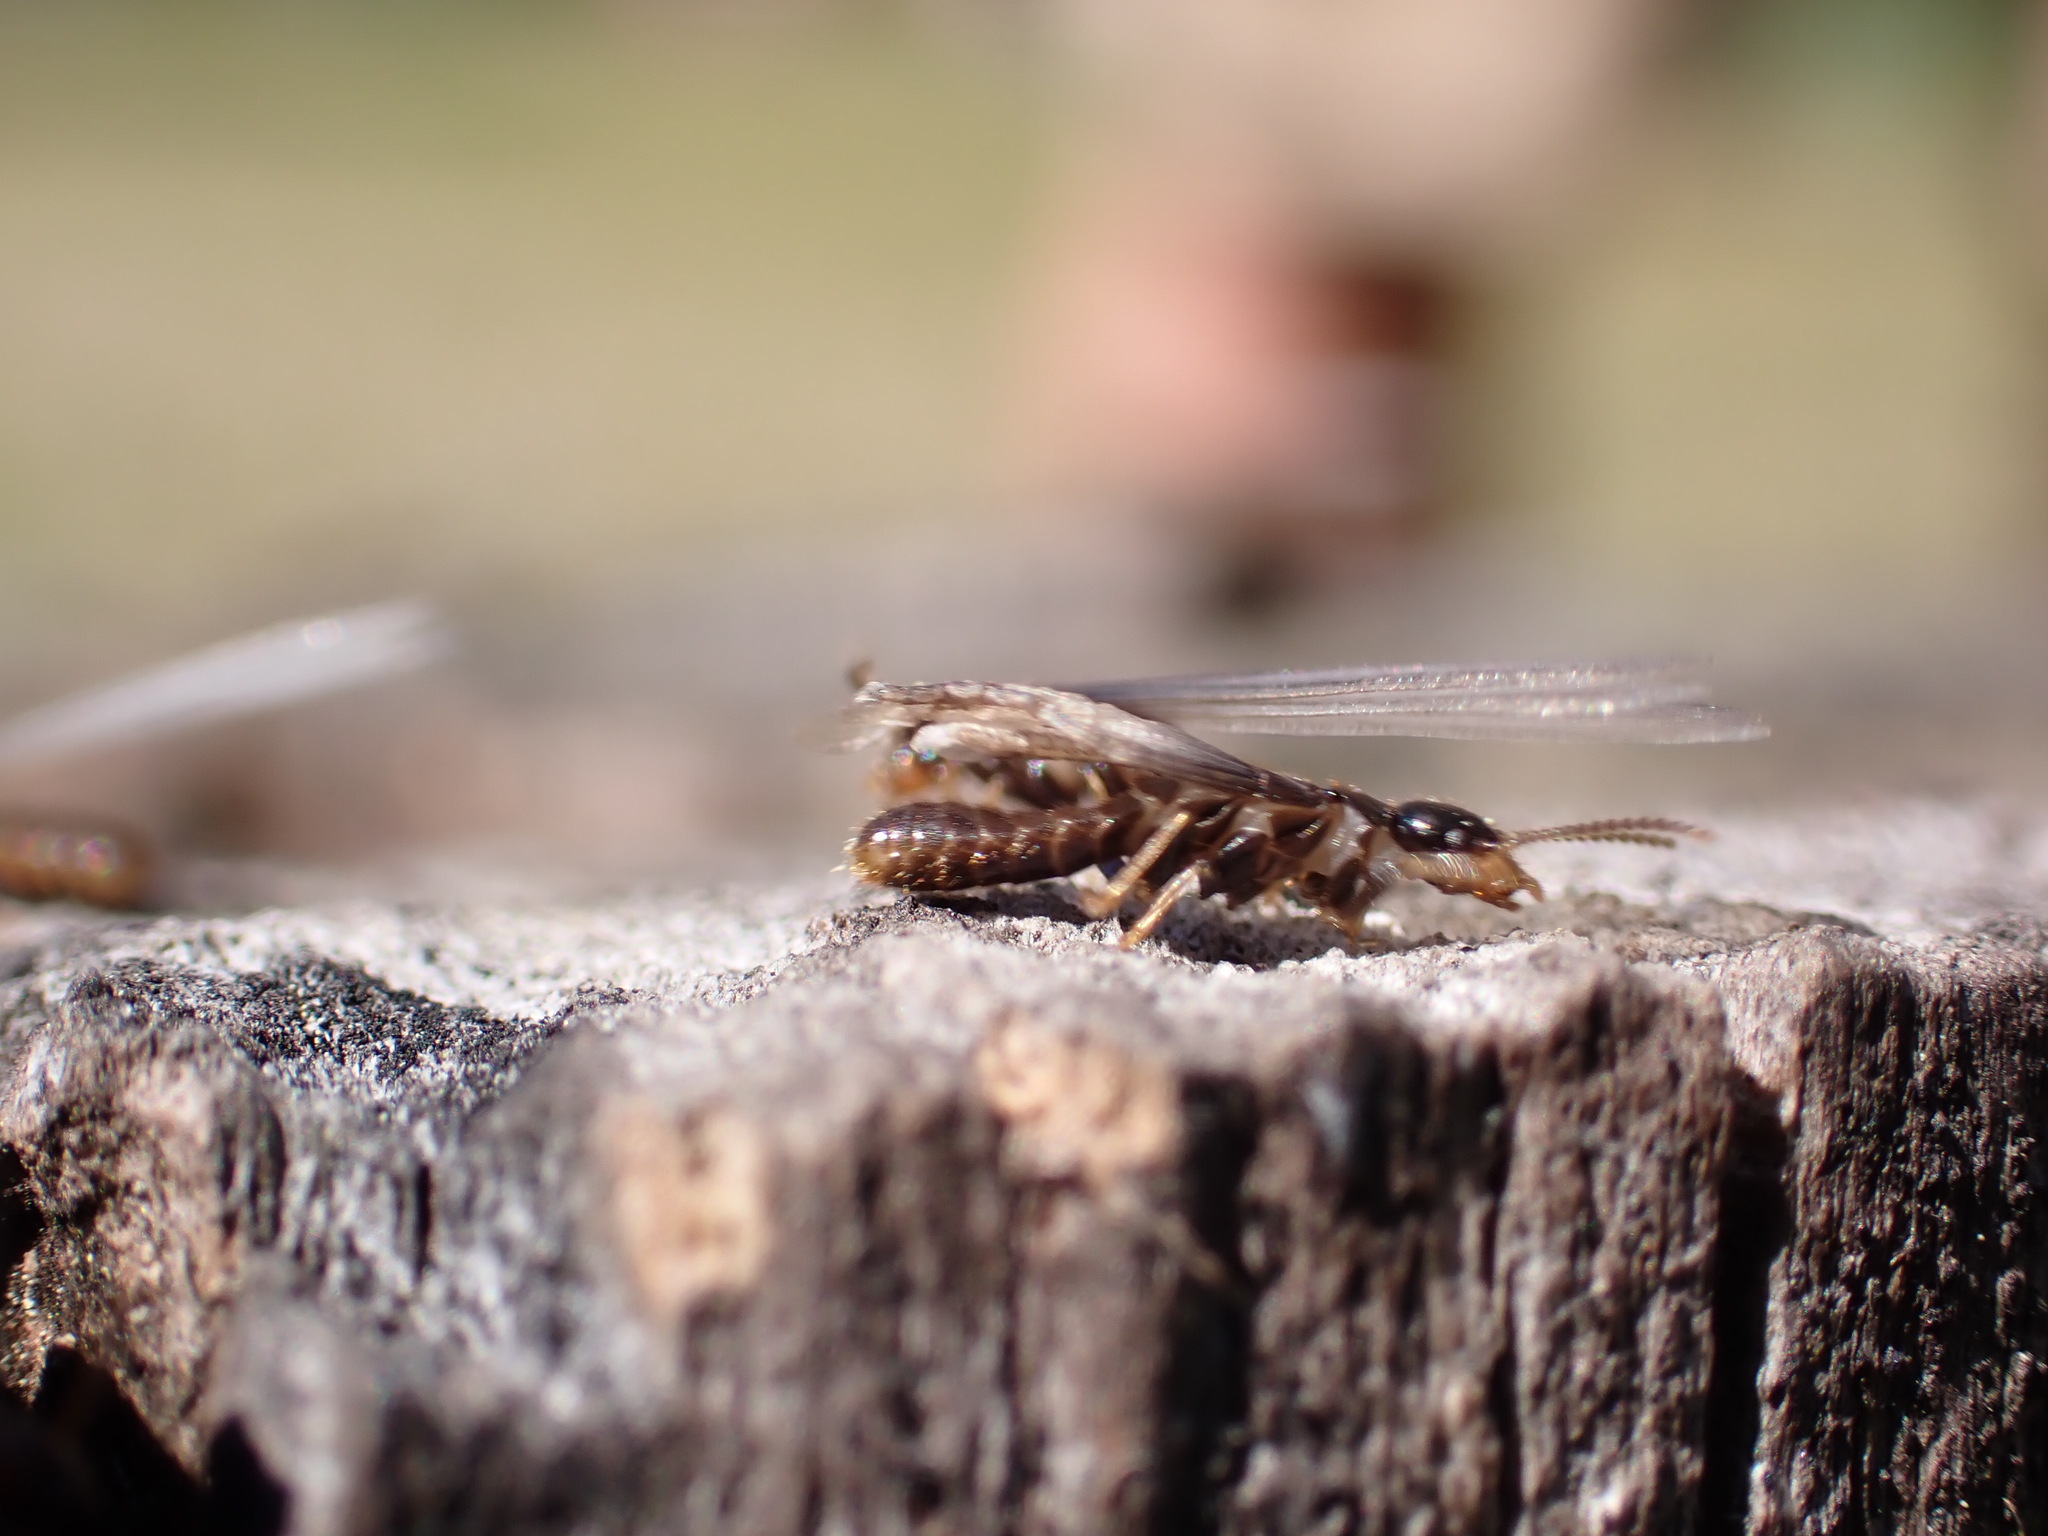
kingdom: Animalia
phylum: Arthropoda
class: Insecta
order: Blattodea
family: Rhinotermitidae
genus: Reticulitermes
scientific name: Reticulitermes flavipes
